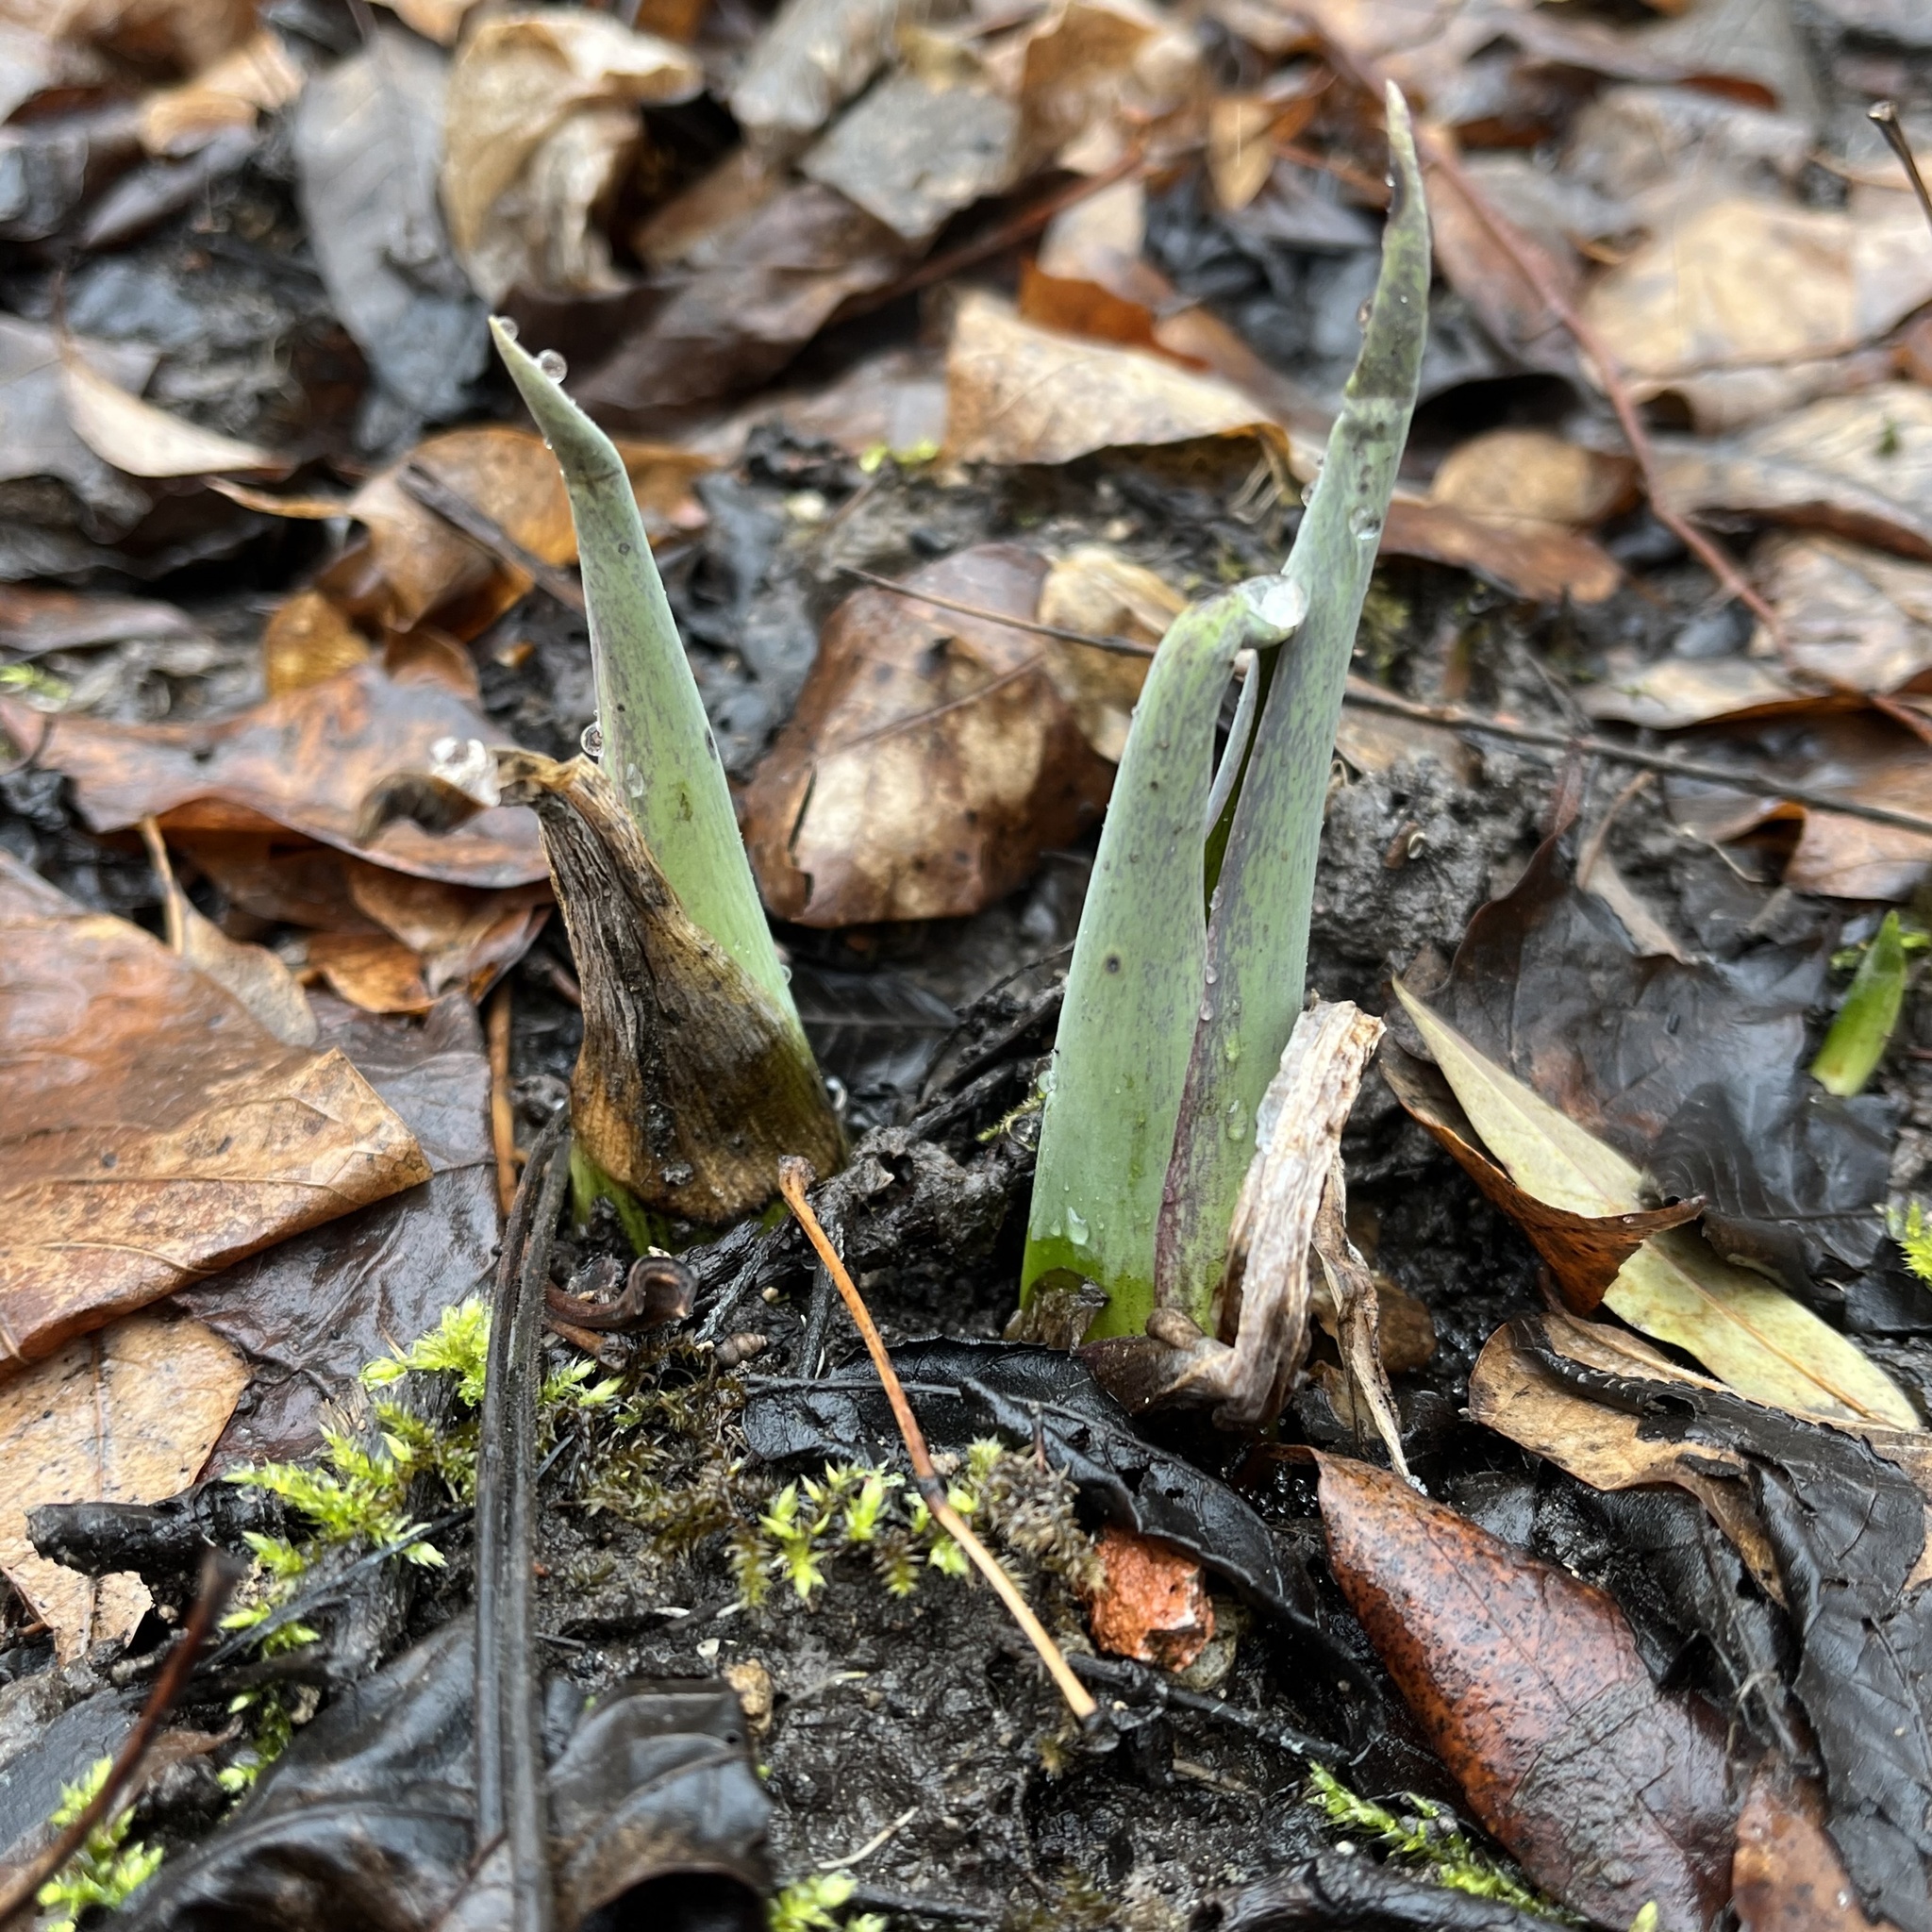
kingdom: Plantae
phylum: Tracheophyta
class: Liliopsida
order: Alismatales
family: Araceae
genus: Symplocarpus
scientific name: Symplocarpus foetidus
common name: Eastern skunk cabbage
